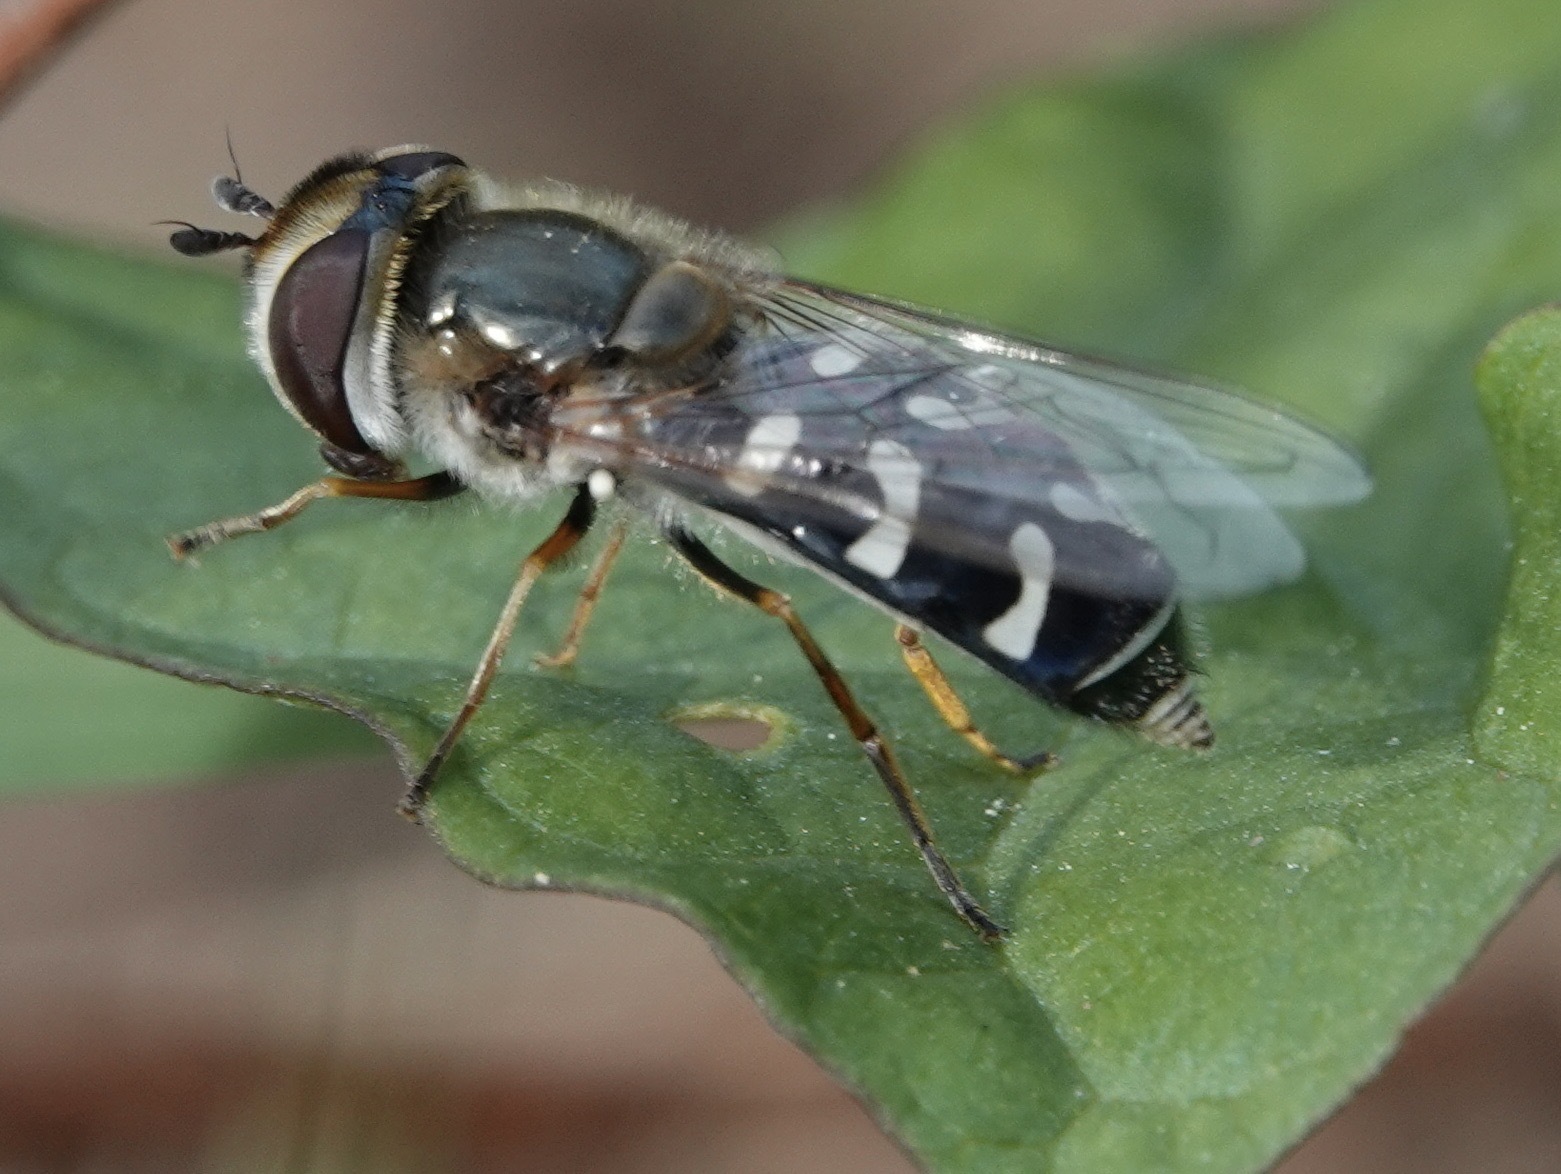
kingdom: Animalia
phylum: Arthropoda
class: Insecta
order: Diptera
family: Syrphidae
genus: Scaeva
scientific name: Scaeva pyrastri
